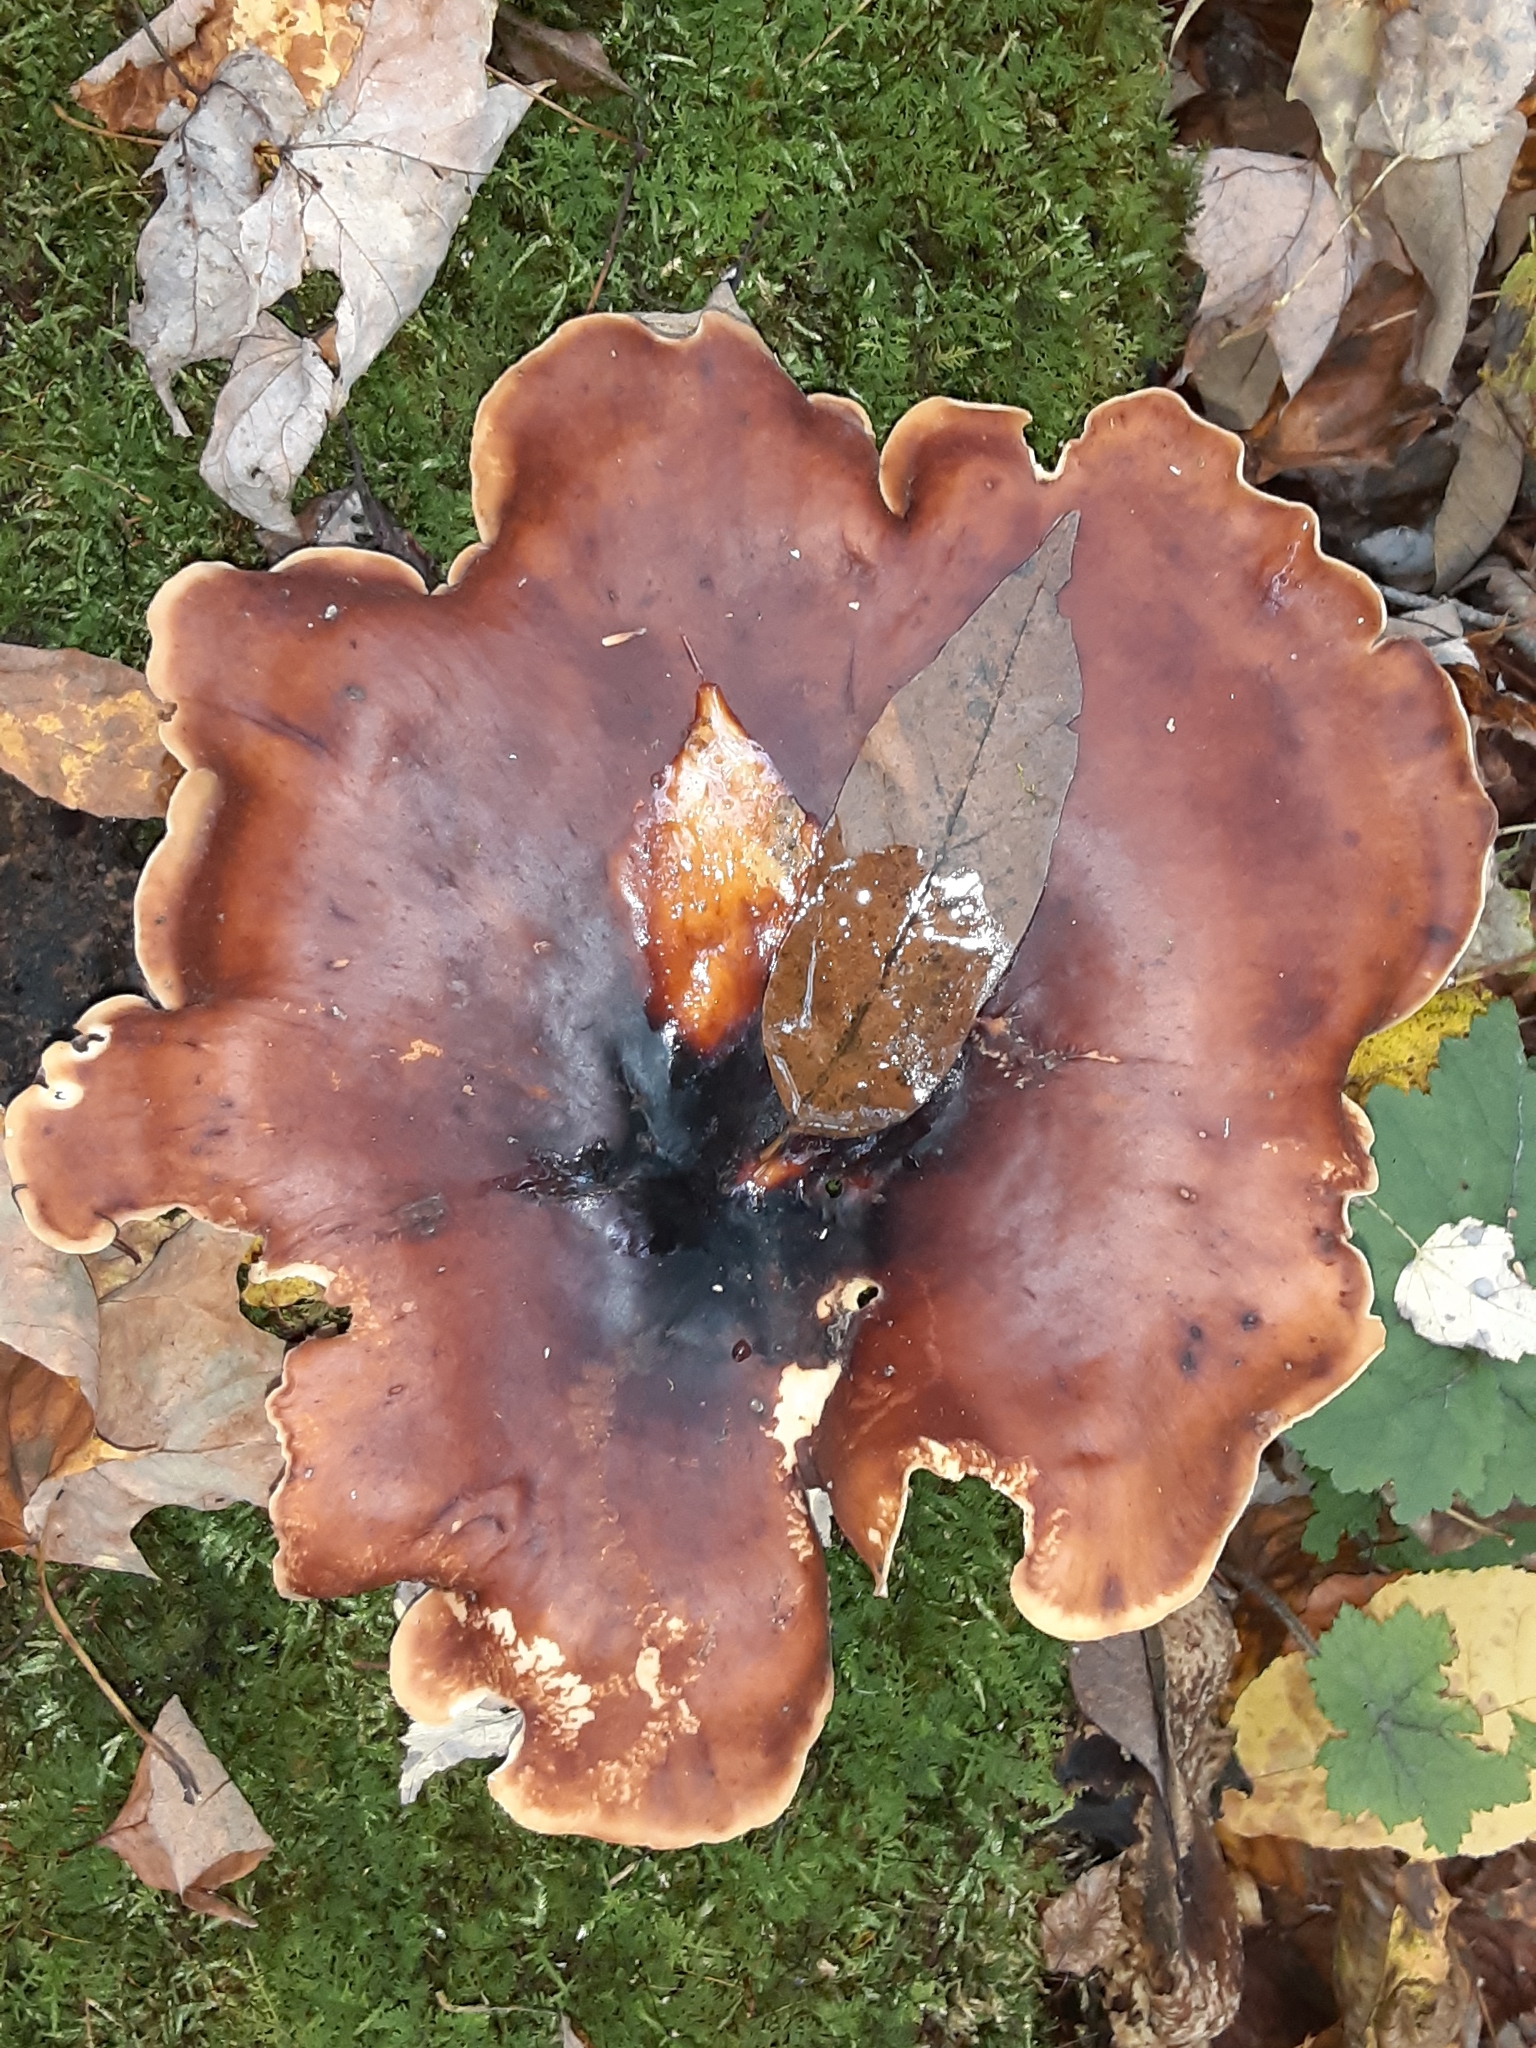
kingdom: Fungi
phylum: Basidiomycota
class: Agaricomycetes
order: Polyporales
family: Polyporaceae
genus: Picipes
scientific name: Picipes badius
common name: Bay polypore
